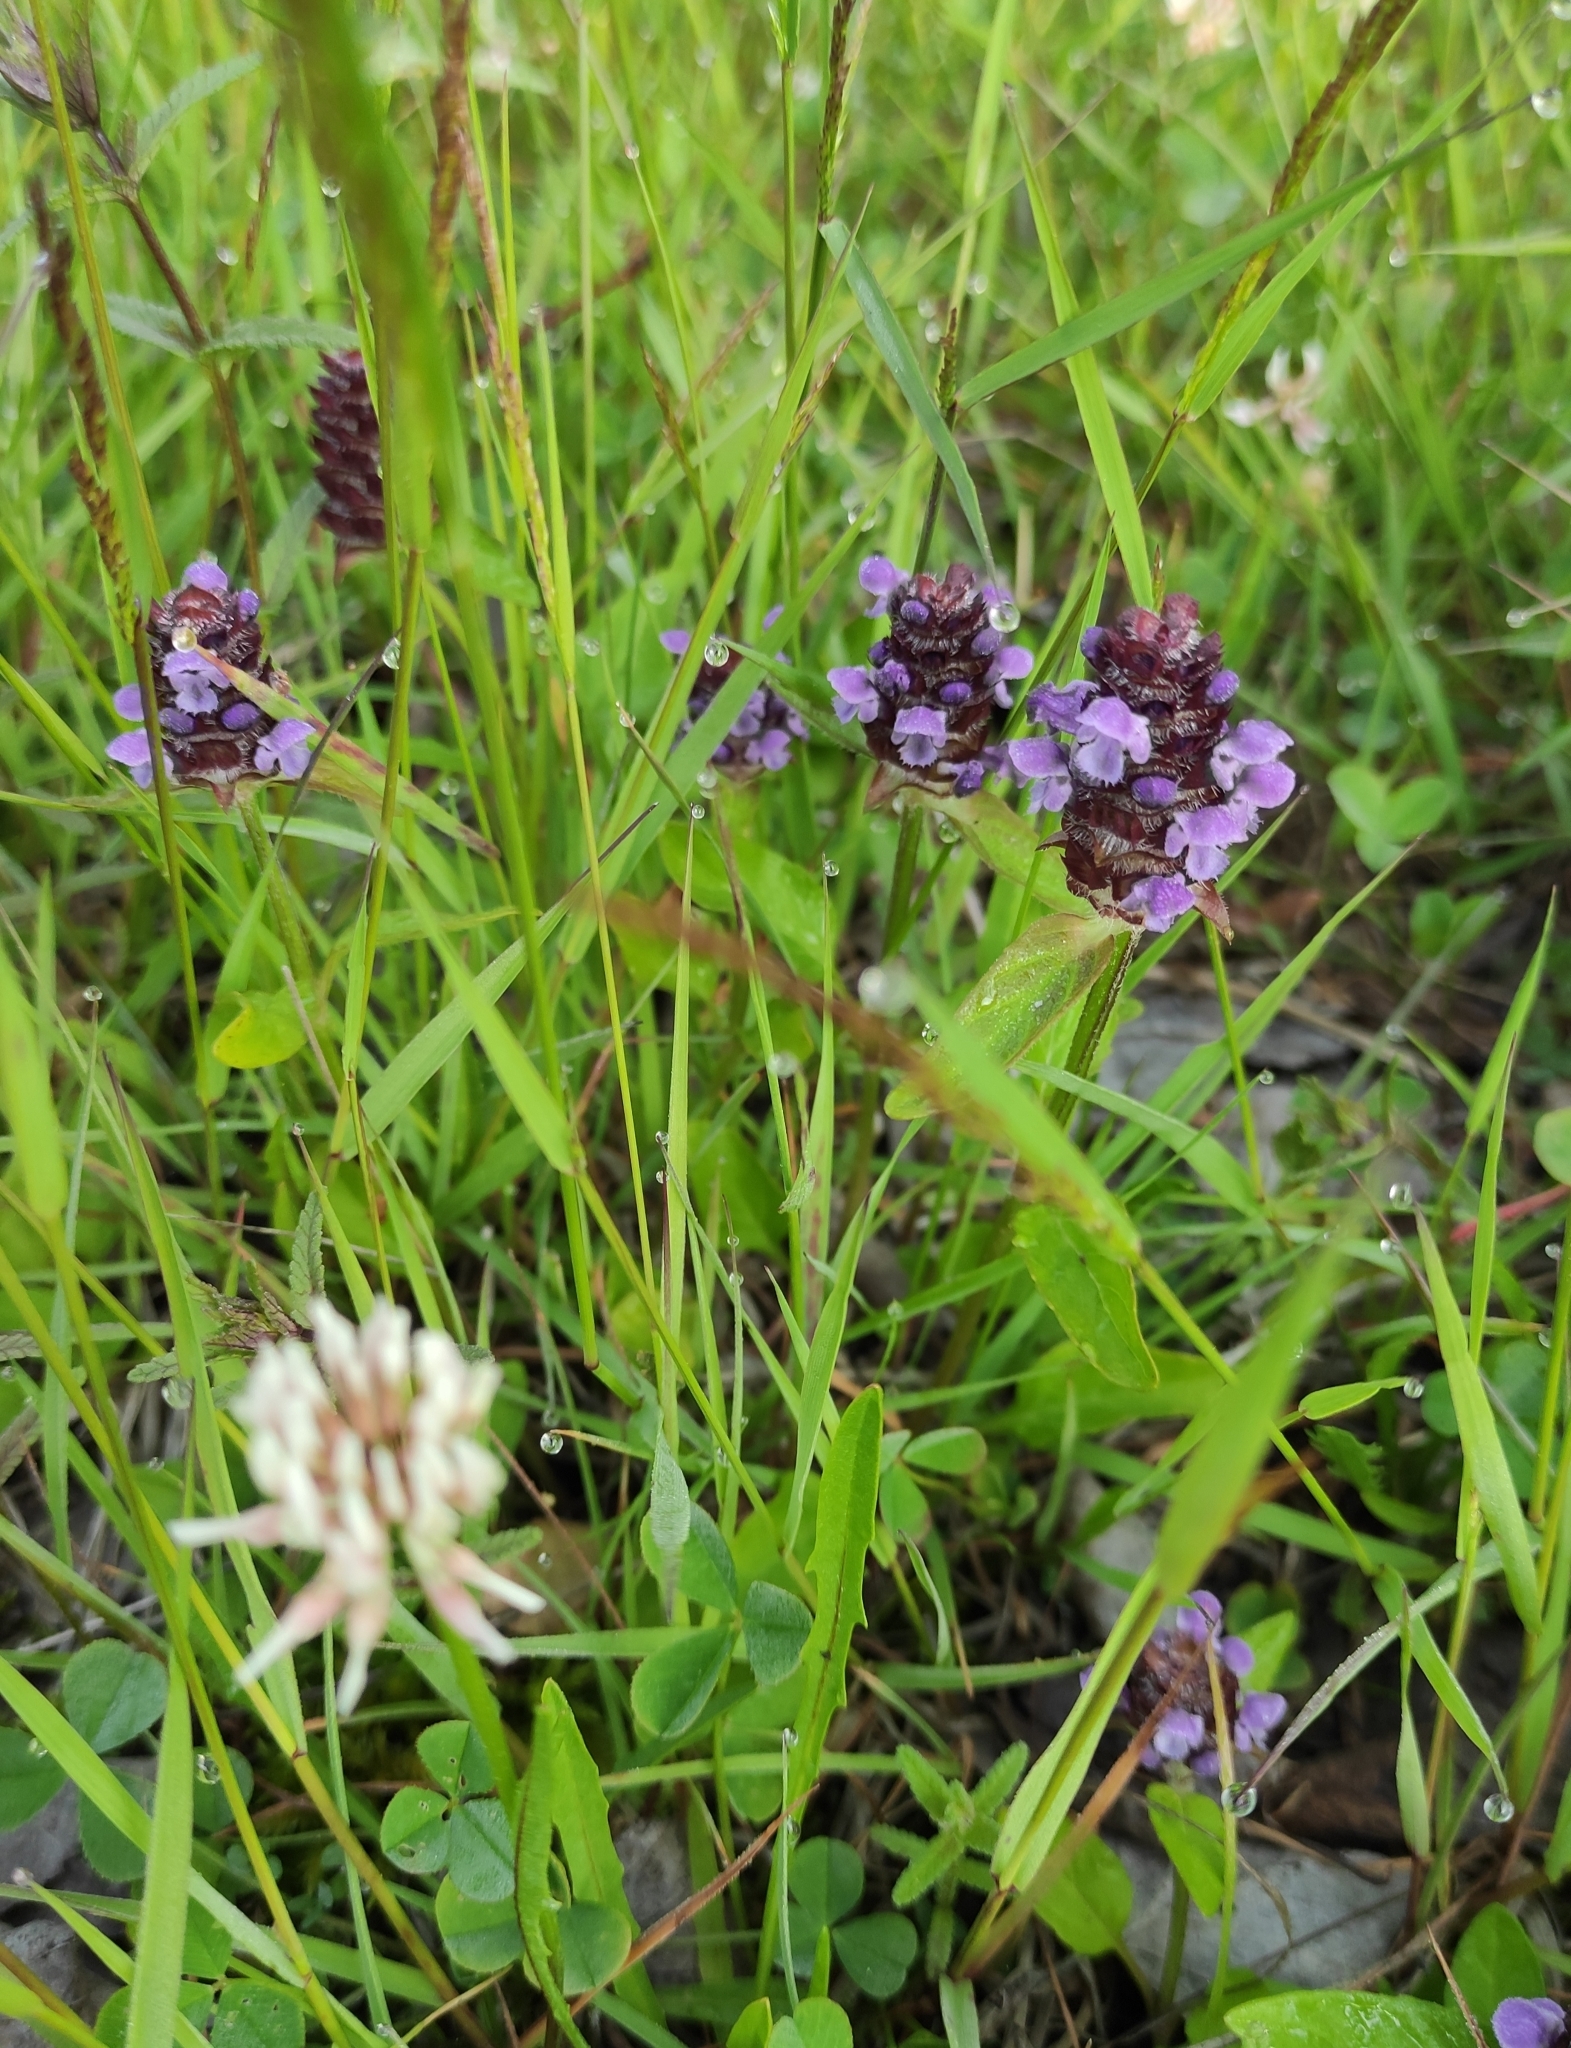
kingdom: Plantae
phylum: Tracheophyta
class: Magnoliopsida
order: Lamiales
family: Lamiaceae
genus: Prunella
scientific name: Prunella vulgaris
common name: Heal-all
